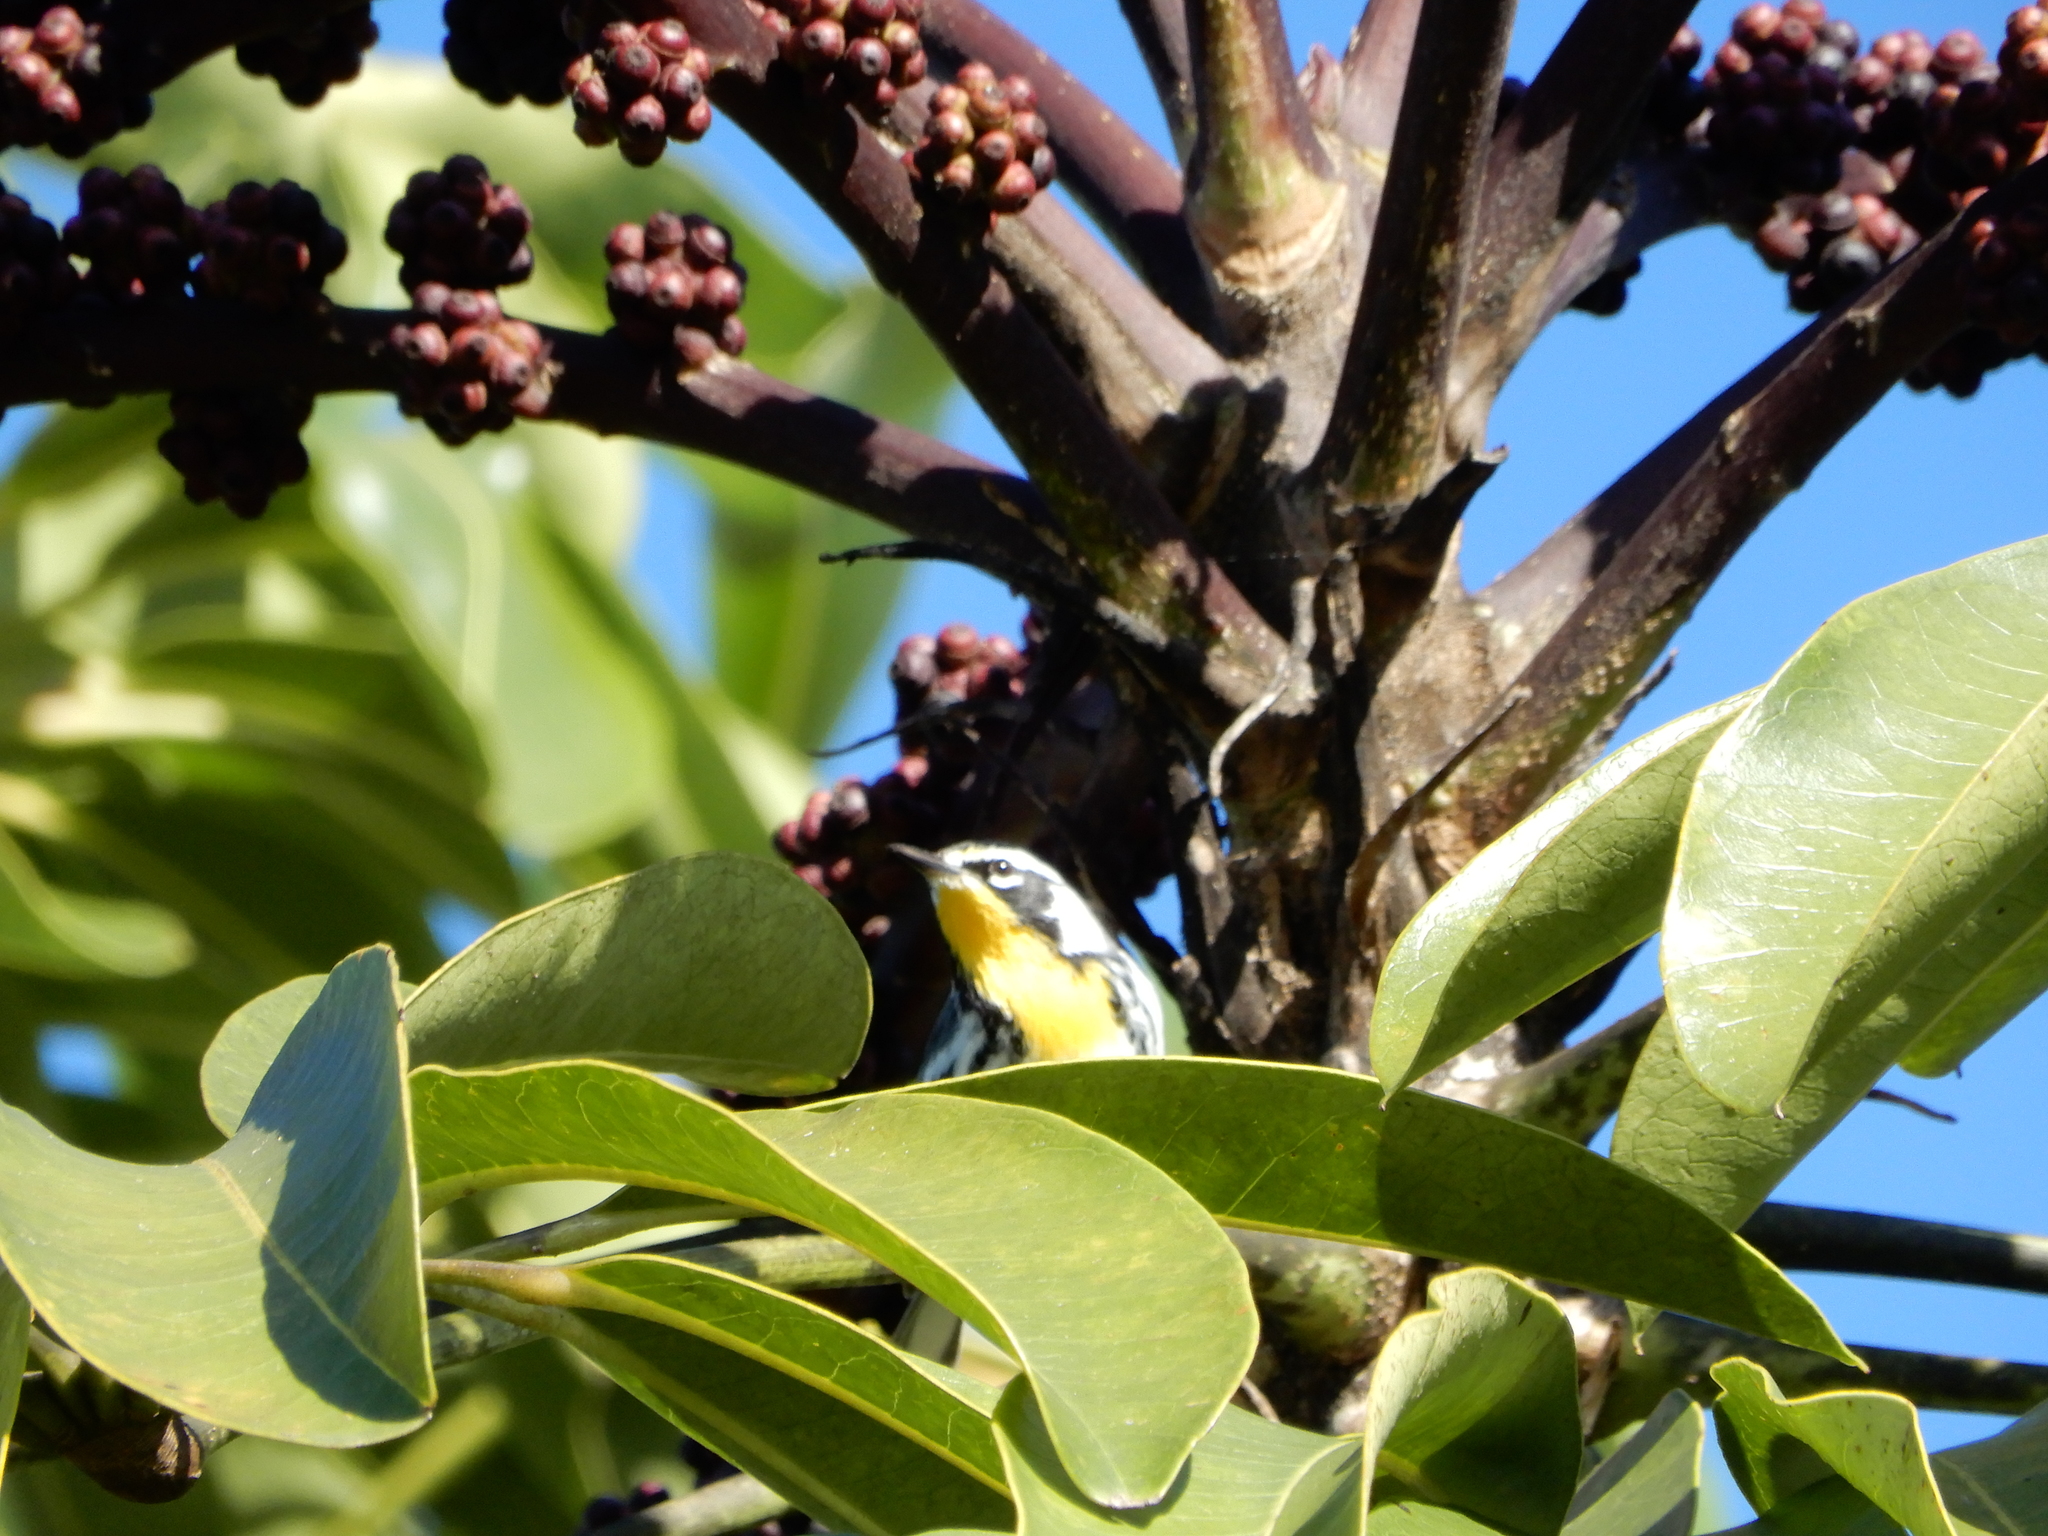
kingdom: Animalia
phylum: Chordata
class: Aves
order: Passeriformes
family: Parulidae
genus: Setophaga
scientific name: Setophaga dominica
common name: Yellow-throated warbler
